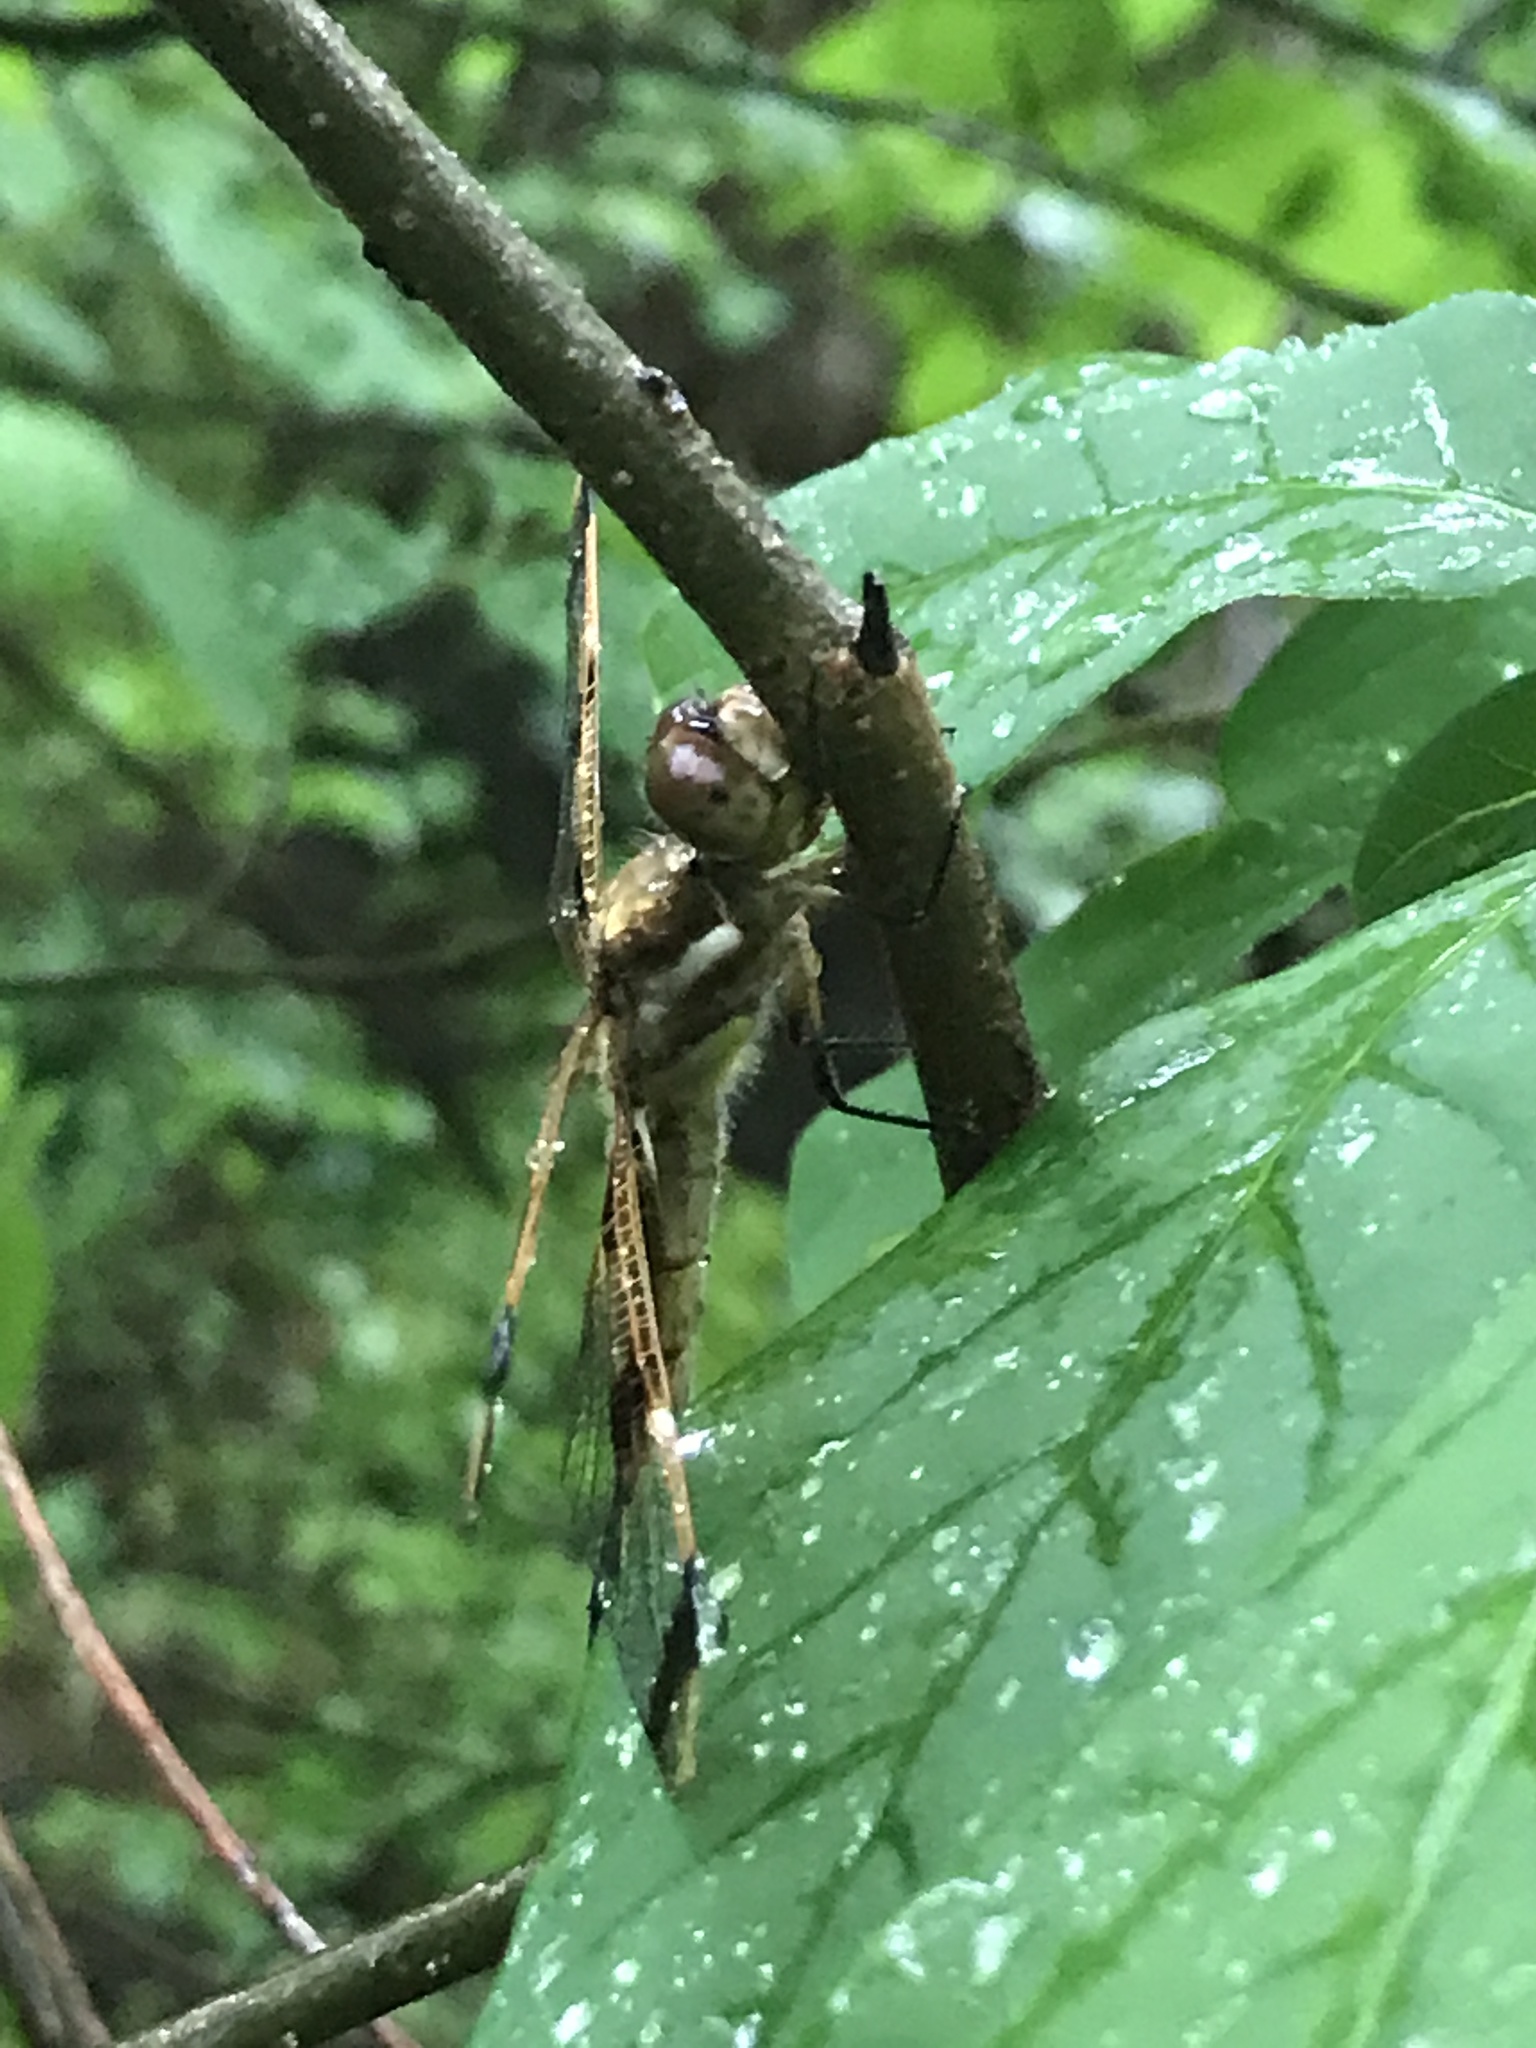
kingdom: Animalia
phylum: Arthropoda
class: Insecta
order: Odonata
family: Libellulidae
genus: Libellula
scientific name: Libellula semifasciata
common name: Painted skimmer
